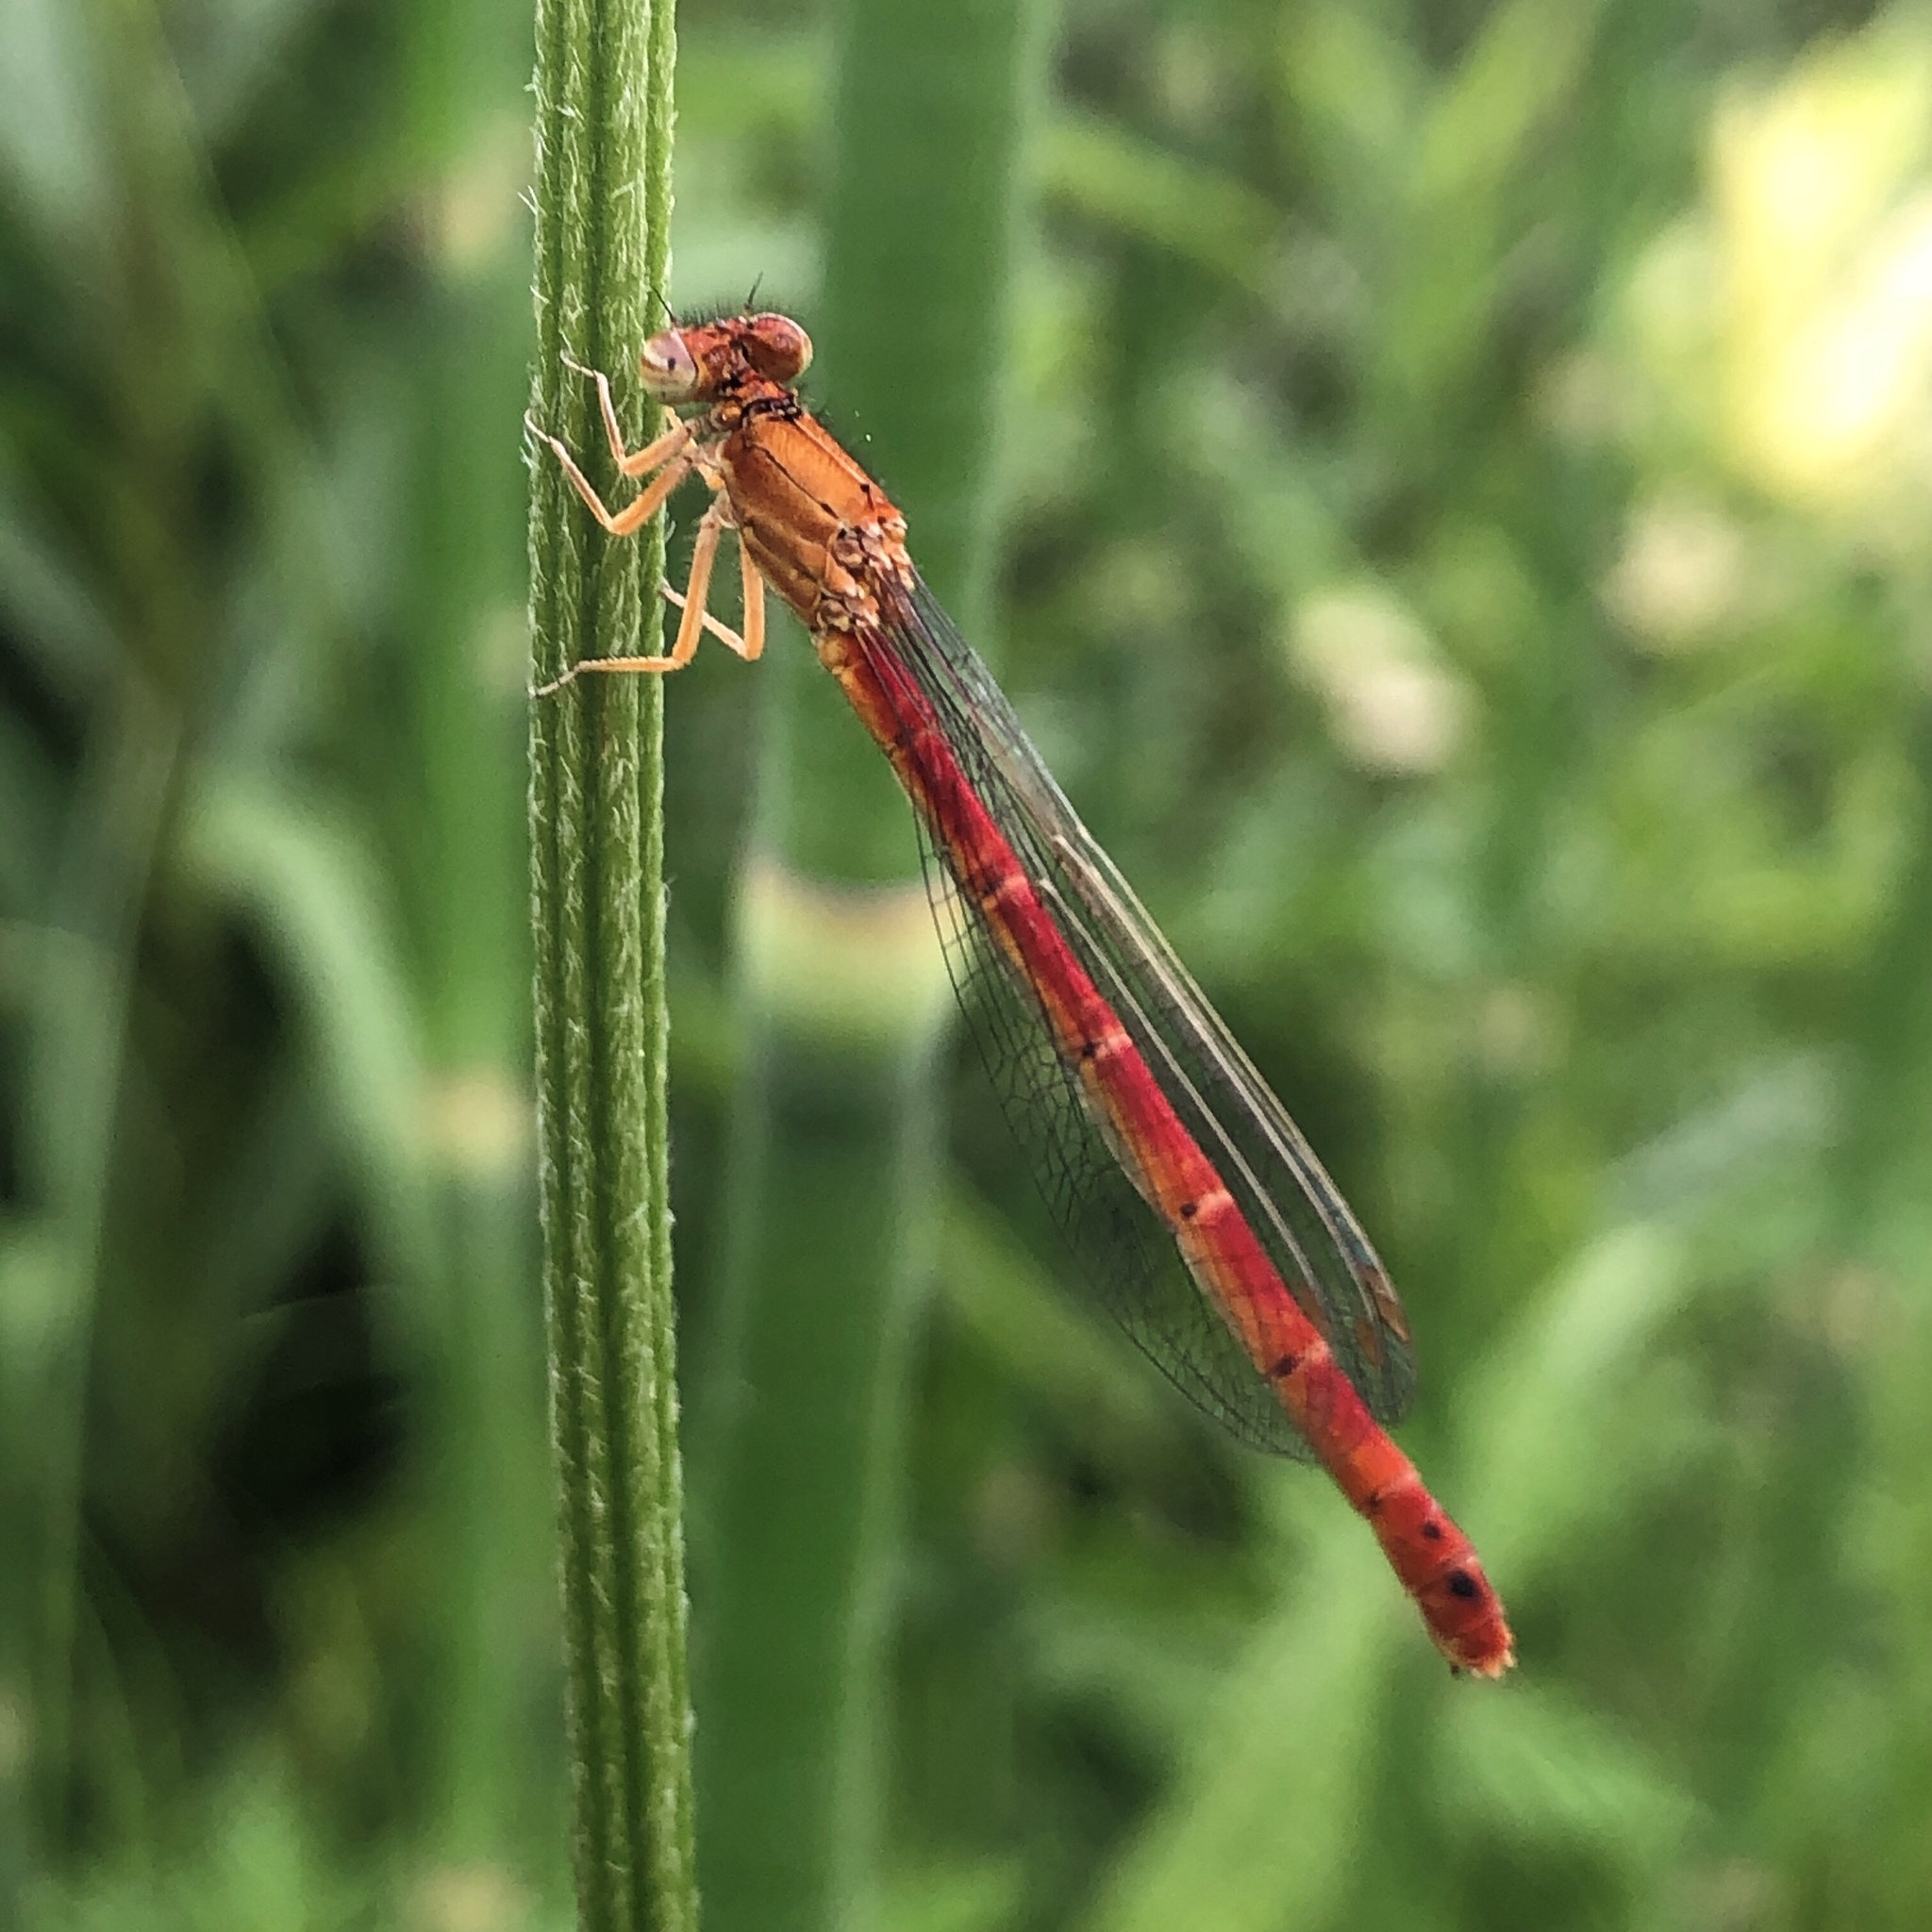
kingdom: Animalia
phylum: Arthropoda
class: Insecta
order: Odonata
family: Coenagrionidae
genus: Amphiagrion
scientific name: Amphiagrion saucium
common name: Eastern red damsel
